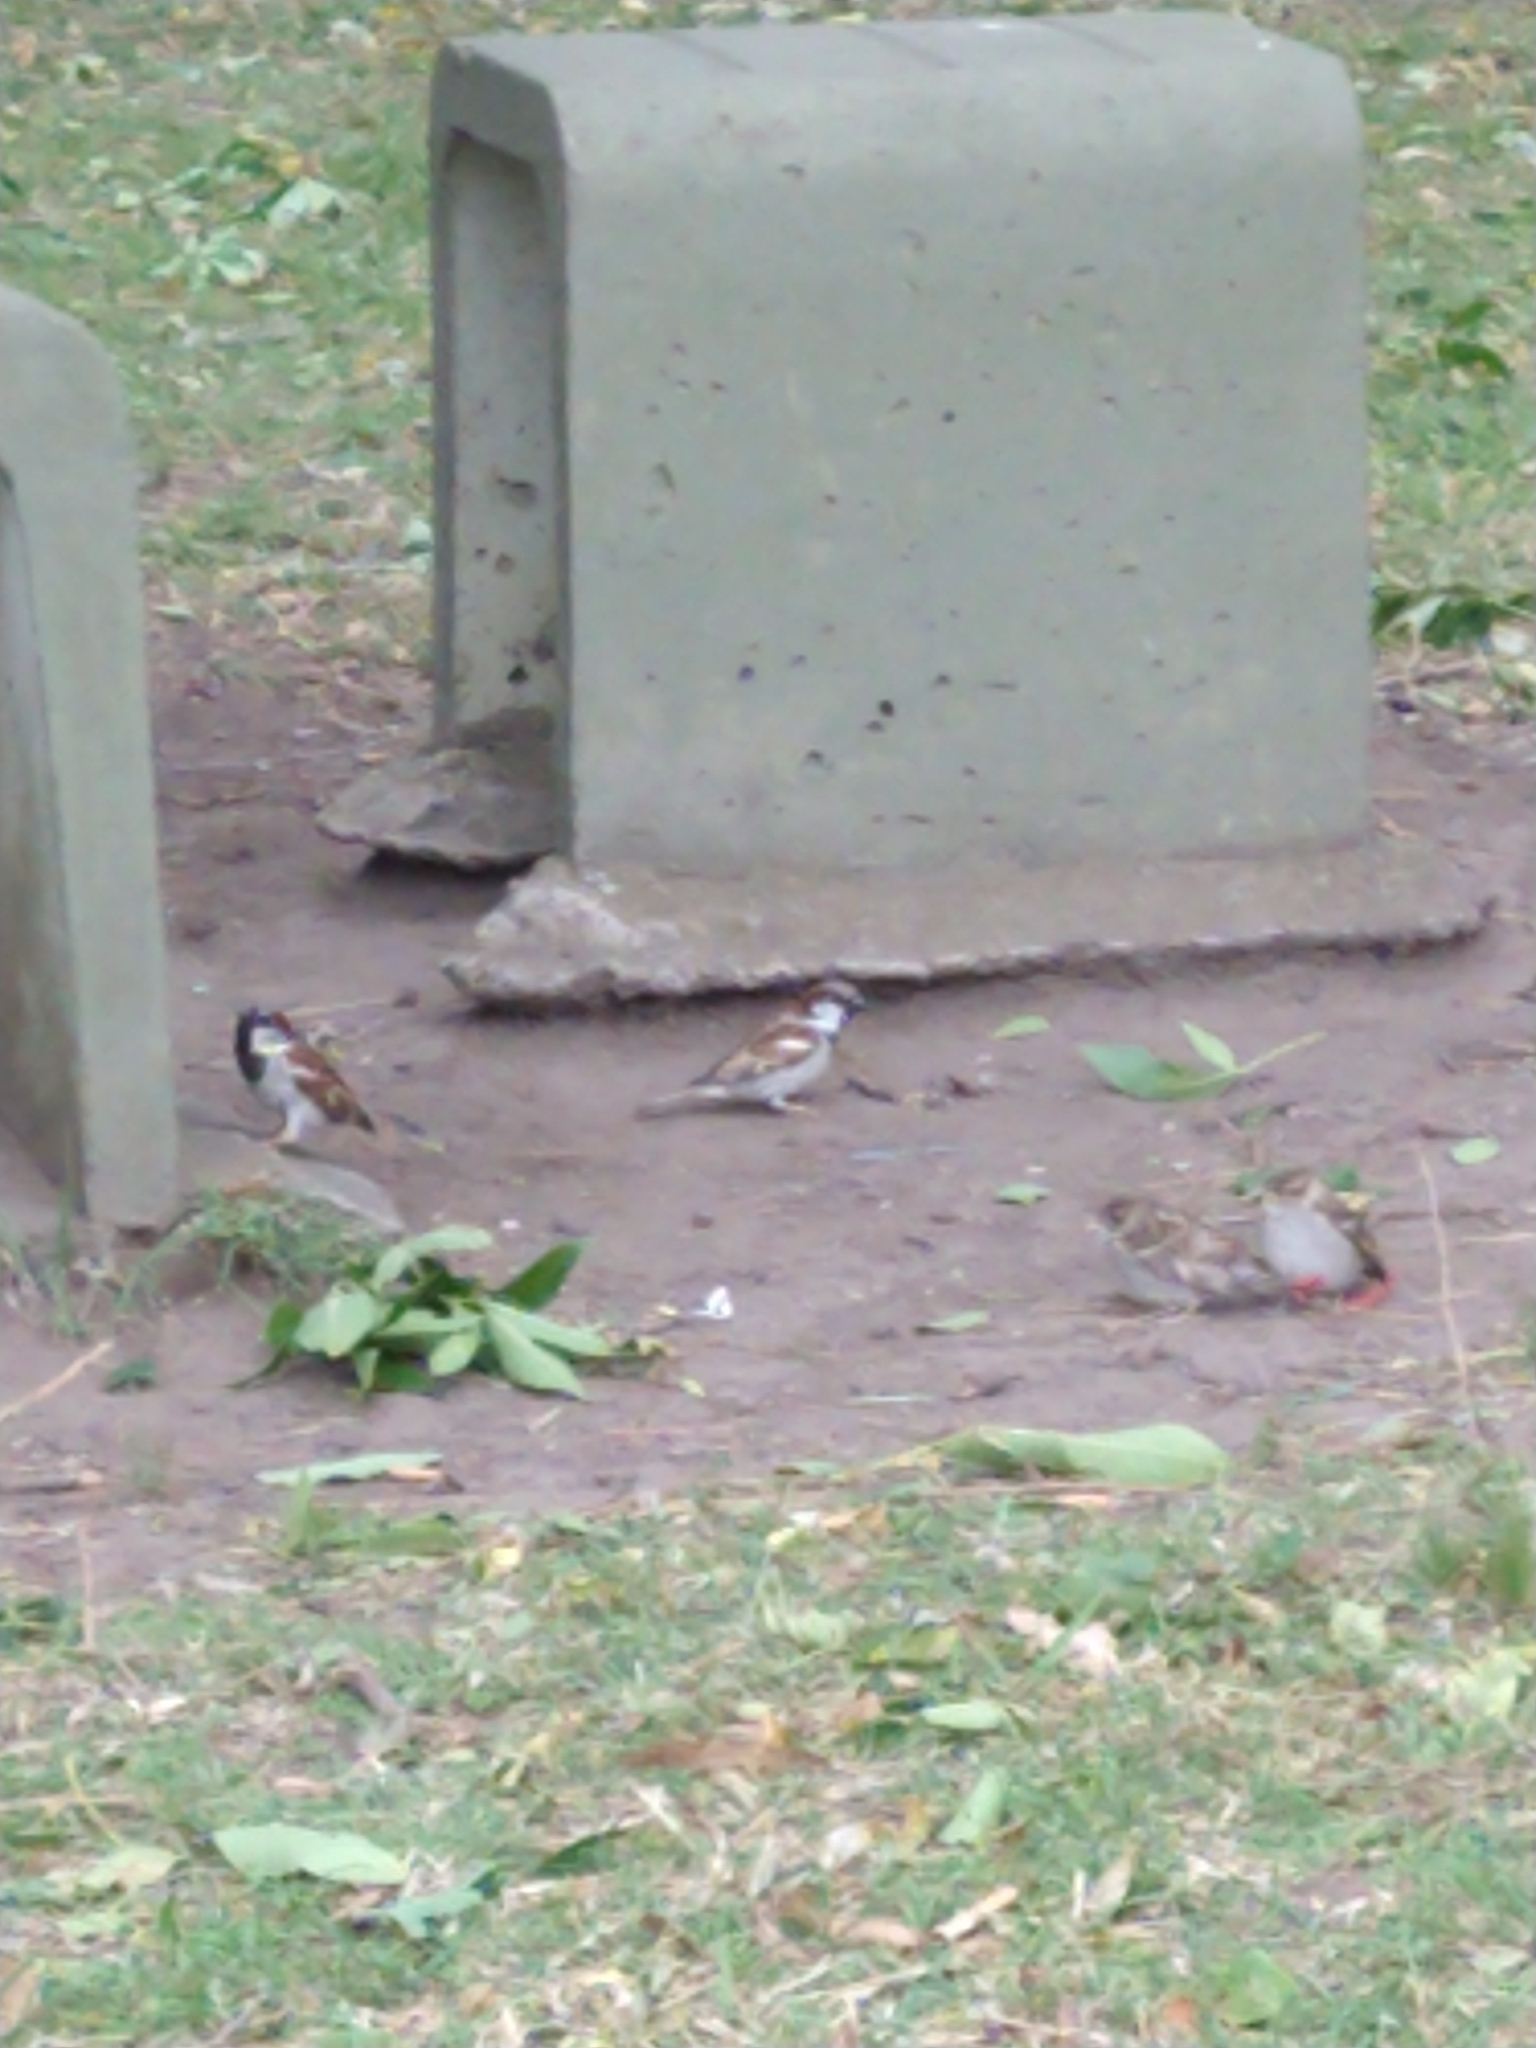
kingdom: Animalia
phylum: Chordata
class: Aves
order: Passeriformes
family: Passeridae
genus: Passer
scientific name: Passer domesticus
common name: House sparrow
